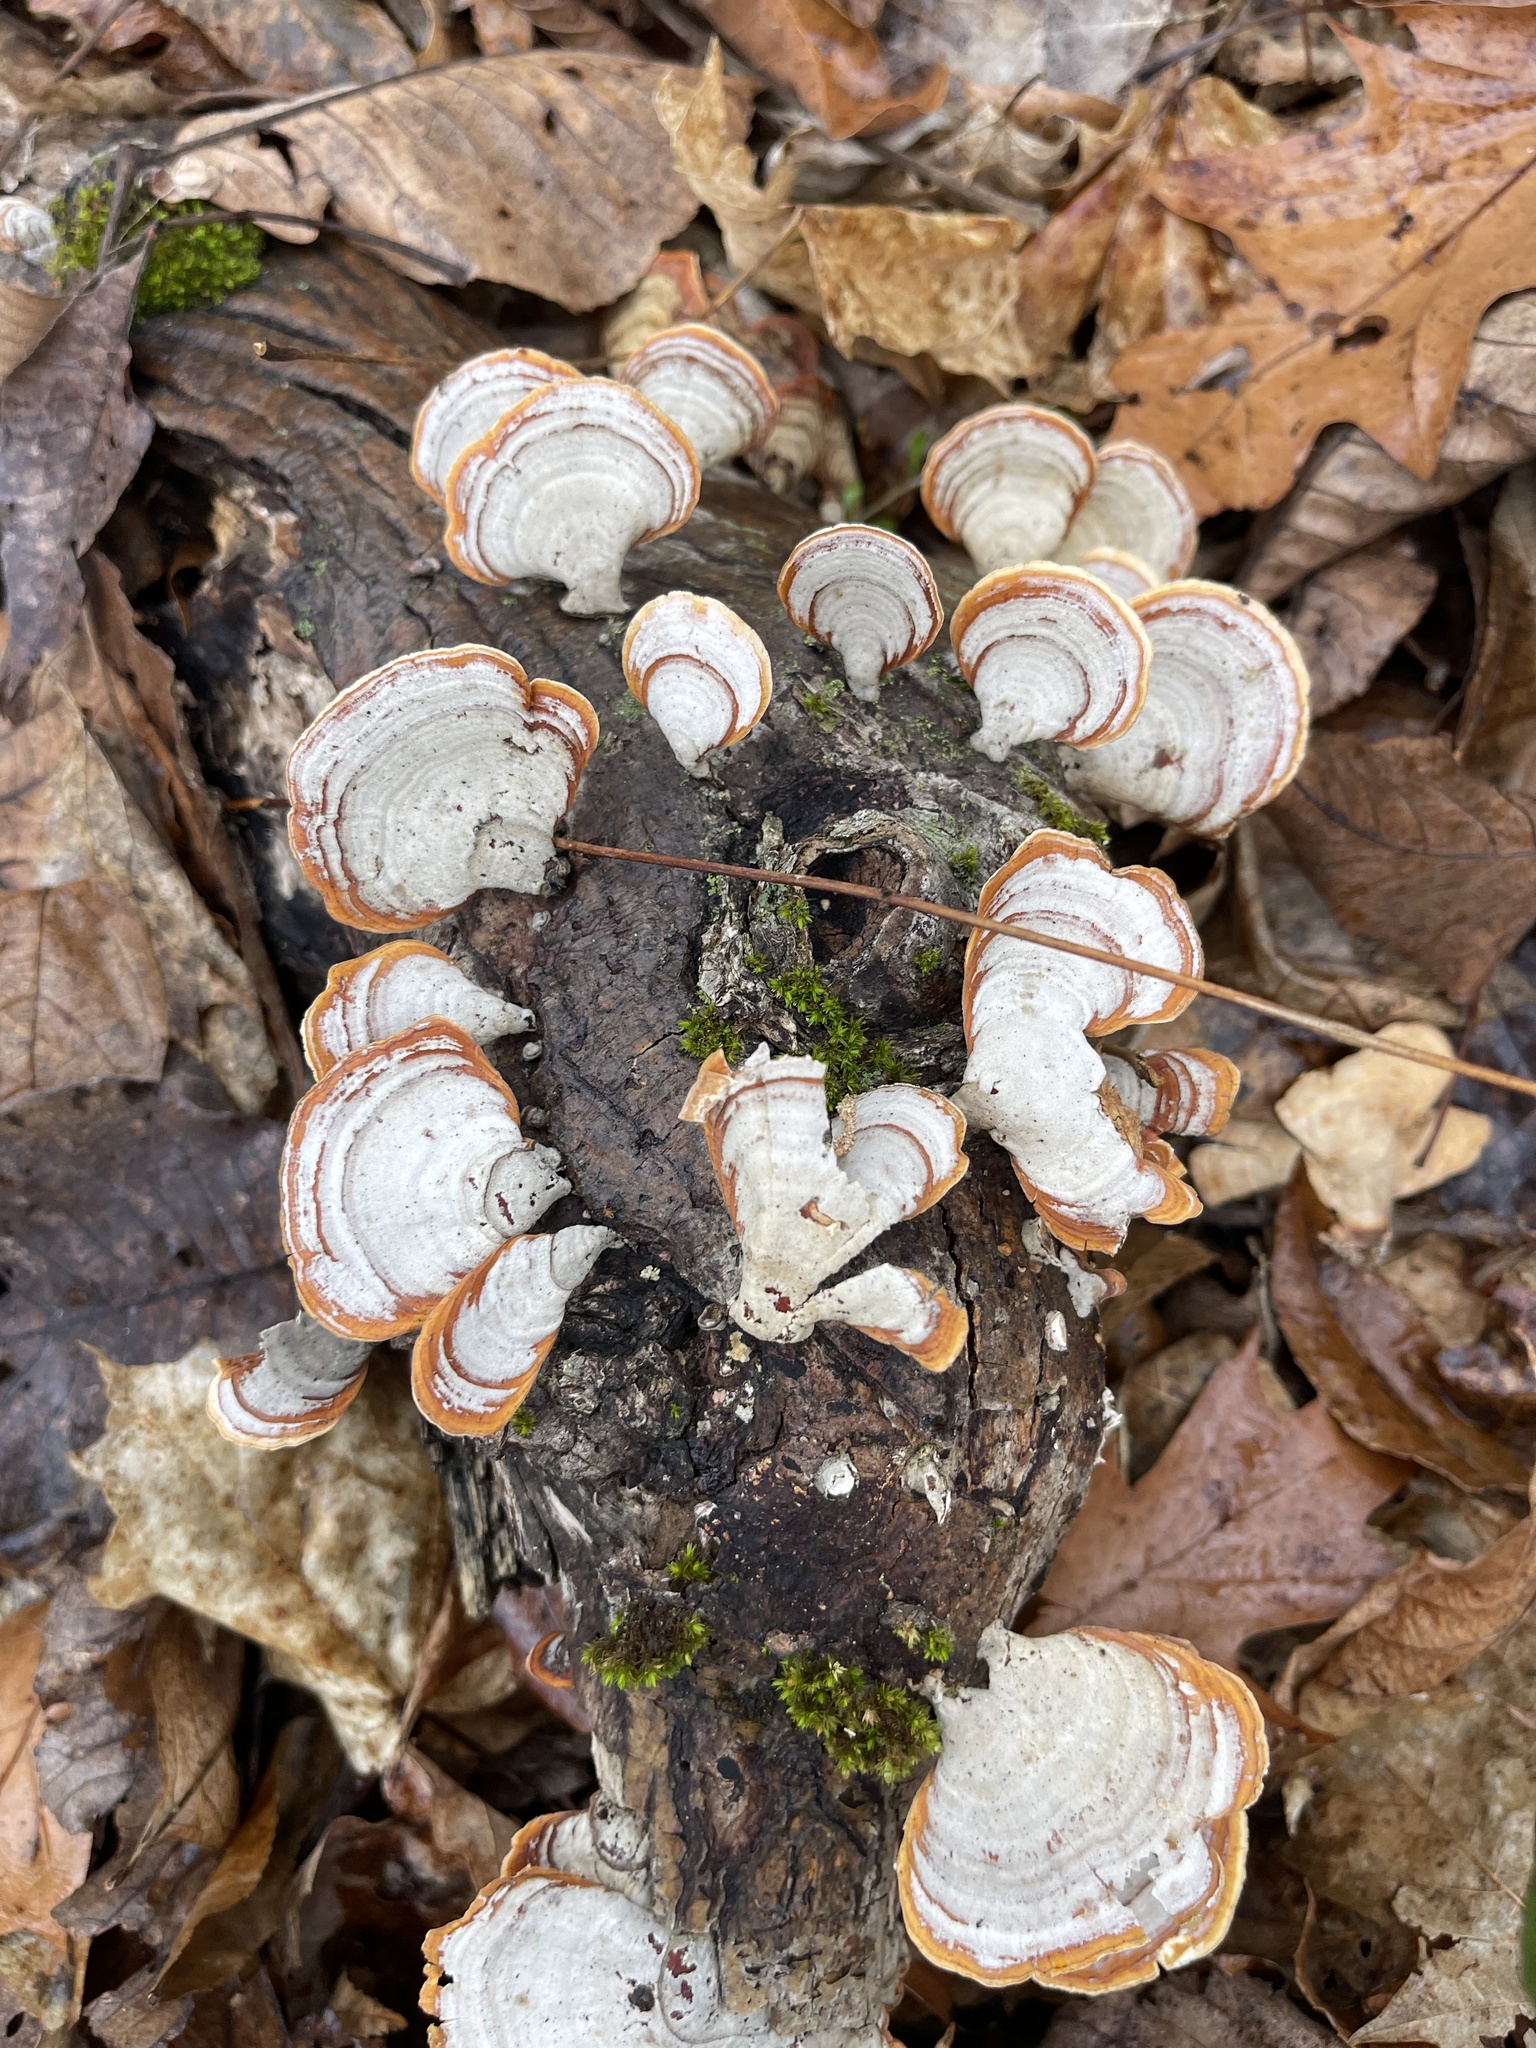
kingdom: Fungi
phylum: Basidiomycota
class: Agaricomycetes
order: Russulales
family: Stereaceae
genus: Stereum
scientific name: Stereum lobatum
